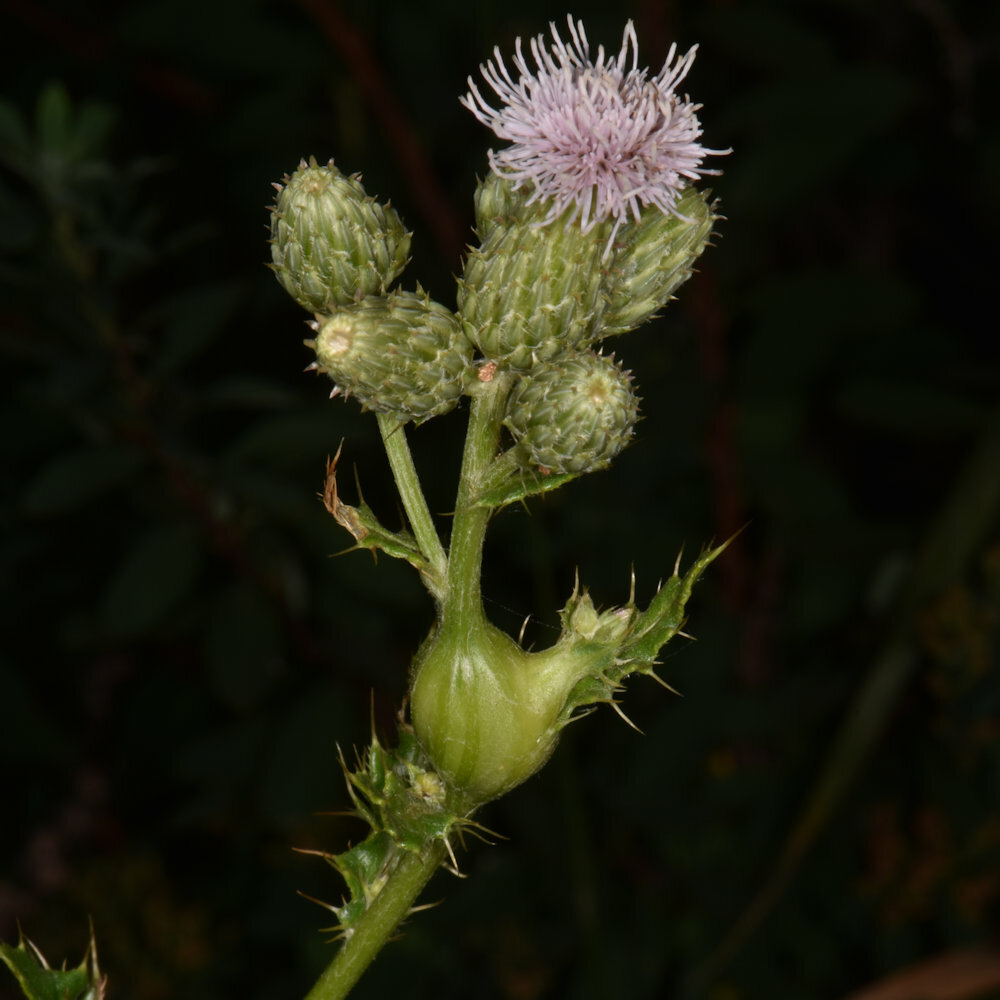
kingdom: Animalia
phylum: Arthropoda
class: Insecta
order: Diptera
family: Tephritidae
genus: Urophora
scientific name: Urophora cardui
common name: Fruit fly
